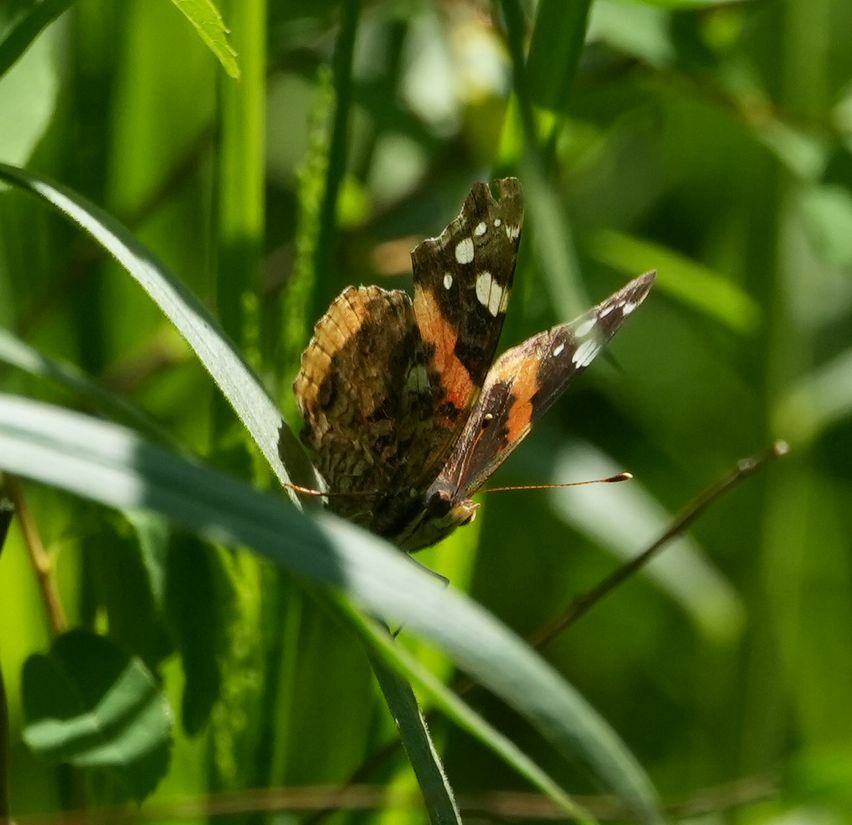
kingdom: Animalia
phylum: Arthropoda
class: Insecta
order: Lepidoptera
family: Nymphalidae
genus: Vanessa
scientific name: Vanessa atalanta
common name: Red admiral
